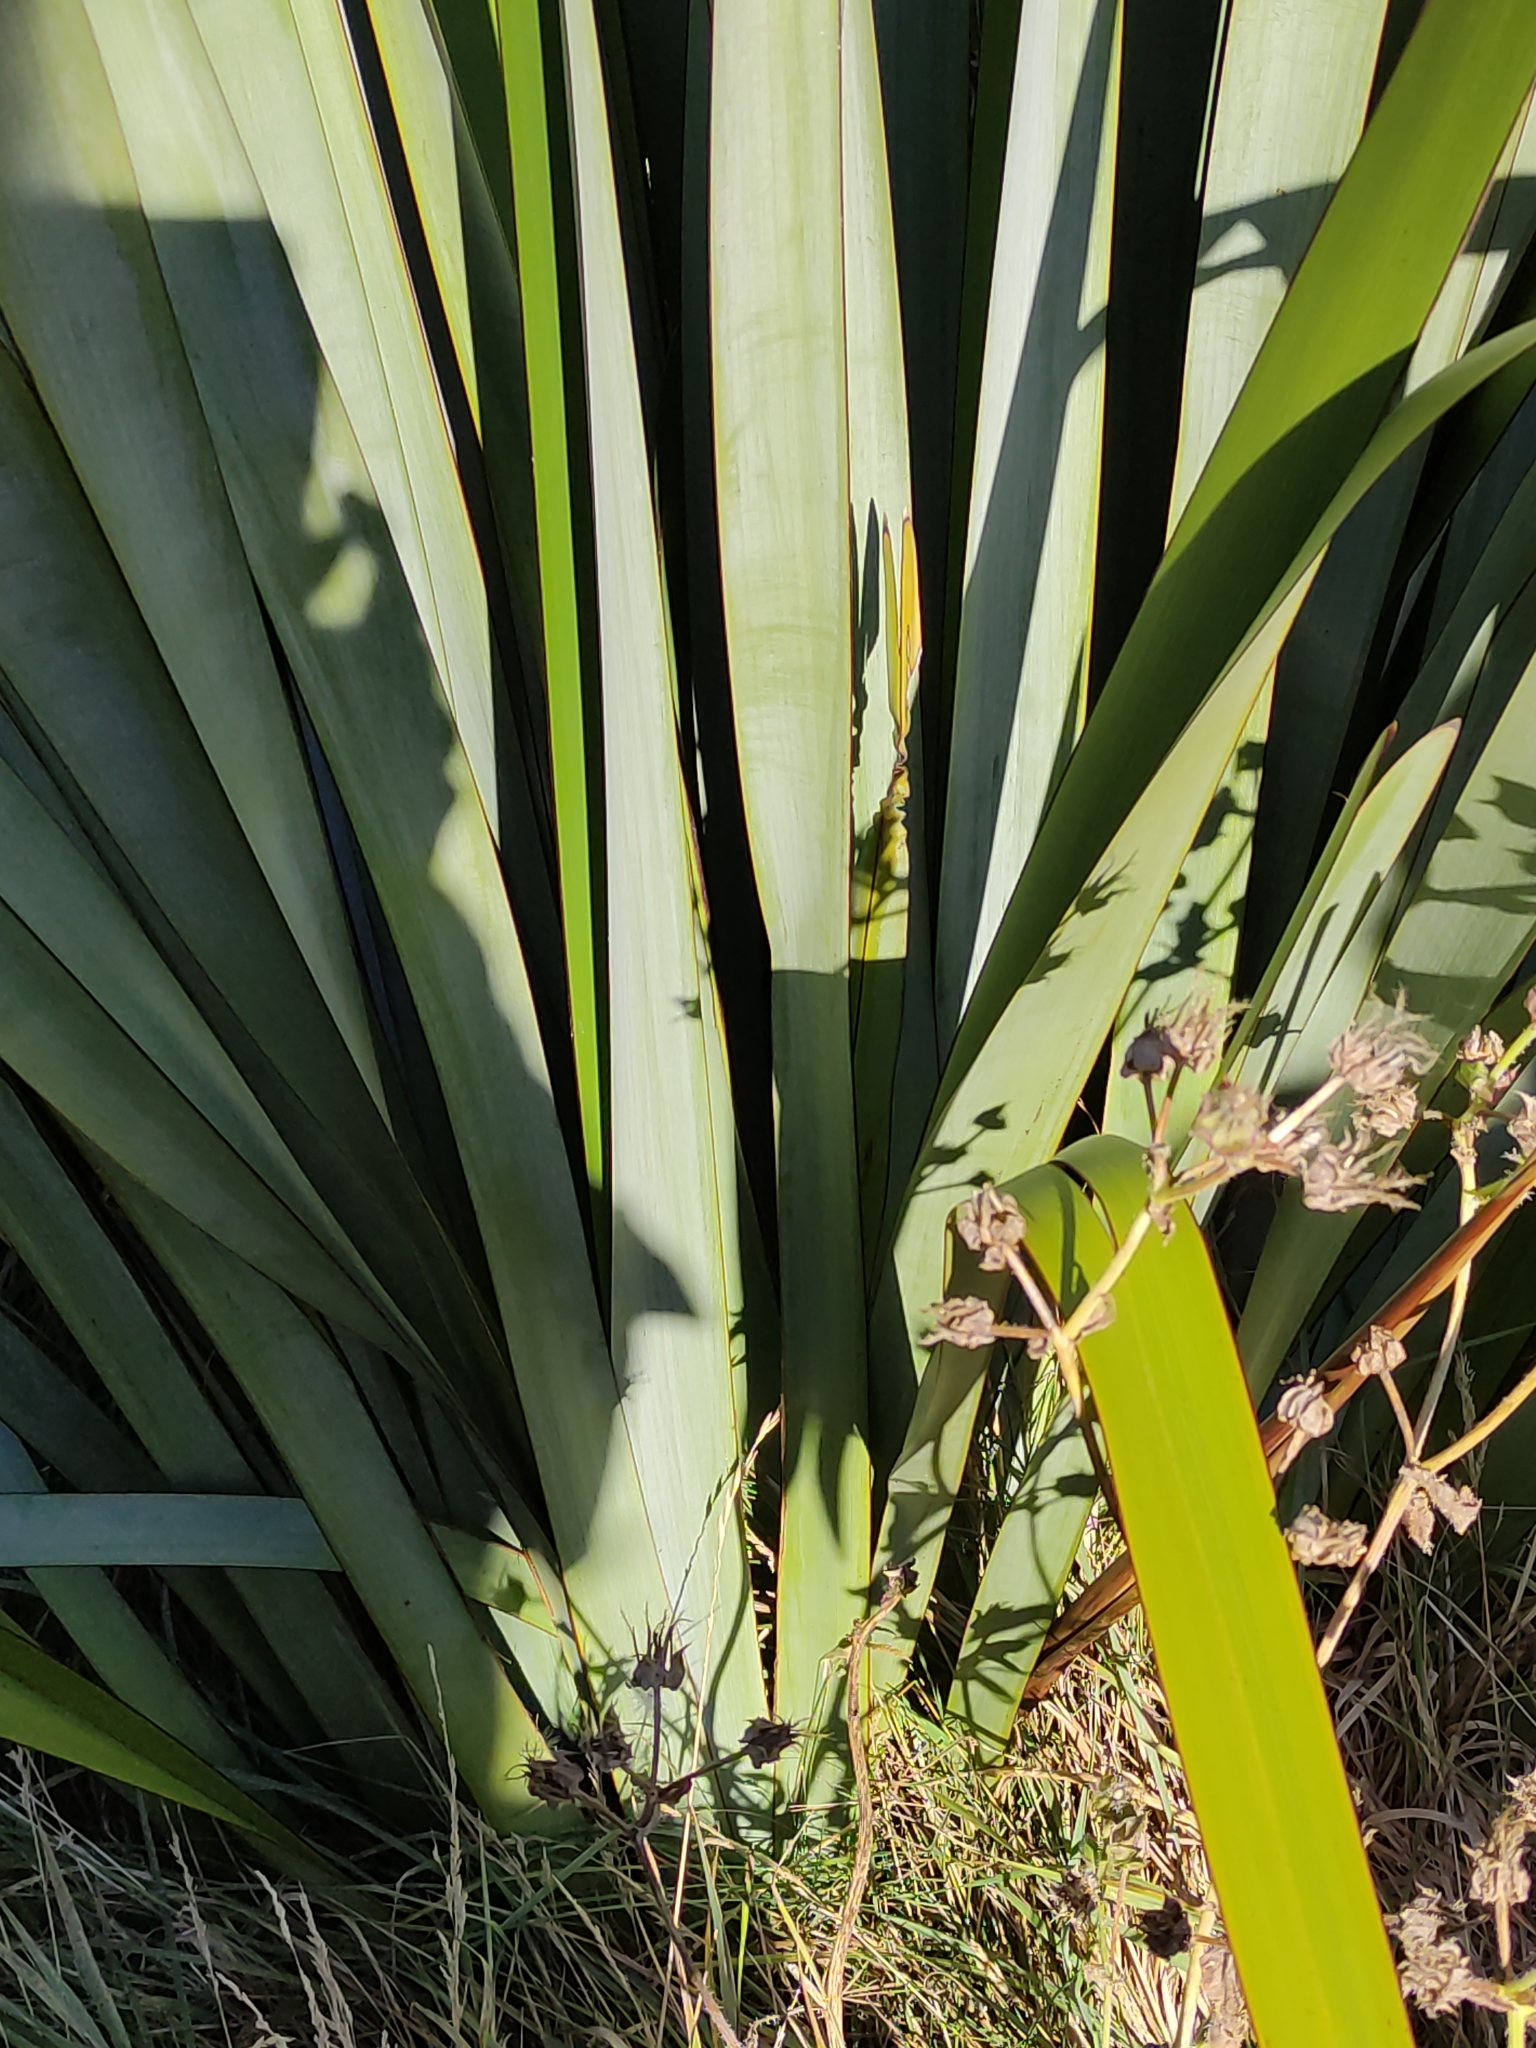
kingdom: Plantae
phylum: Tracheophyta
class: Liliopsida
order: Asparagales
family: Asphodelaceae
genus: Phormium
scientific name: Phormium tenax
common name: New zealand flax
